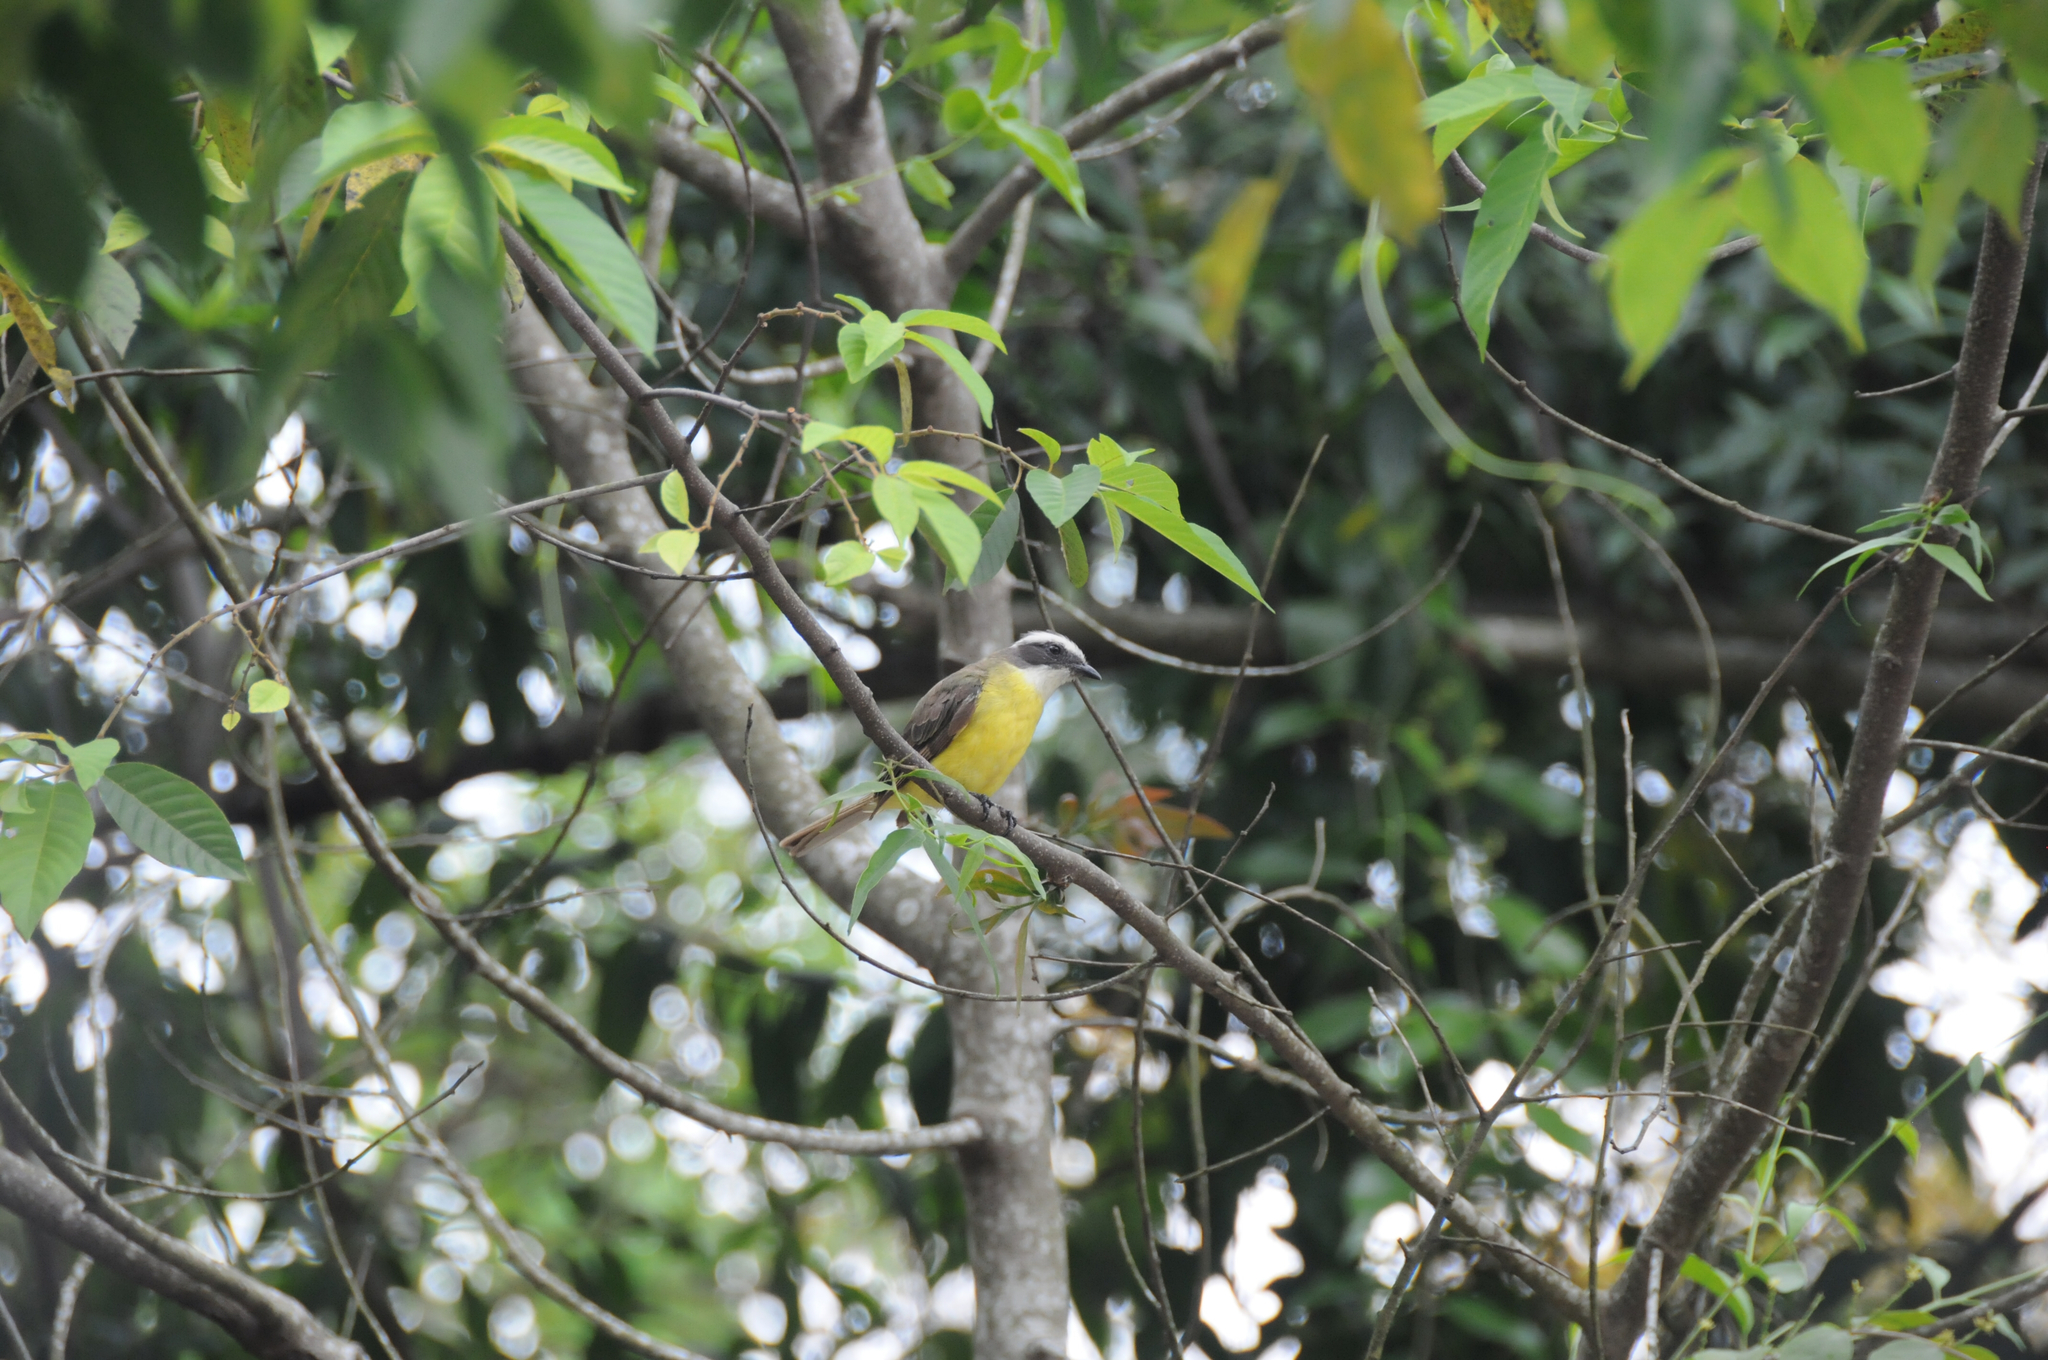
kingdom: Animalia
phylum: Chordata
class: Aves
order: Passeriformes
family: Tyrannidae
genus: Myiozetetes
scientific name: Myiozetetes similis
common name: Social flycatcher
